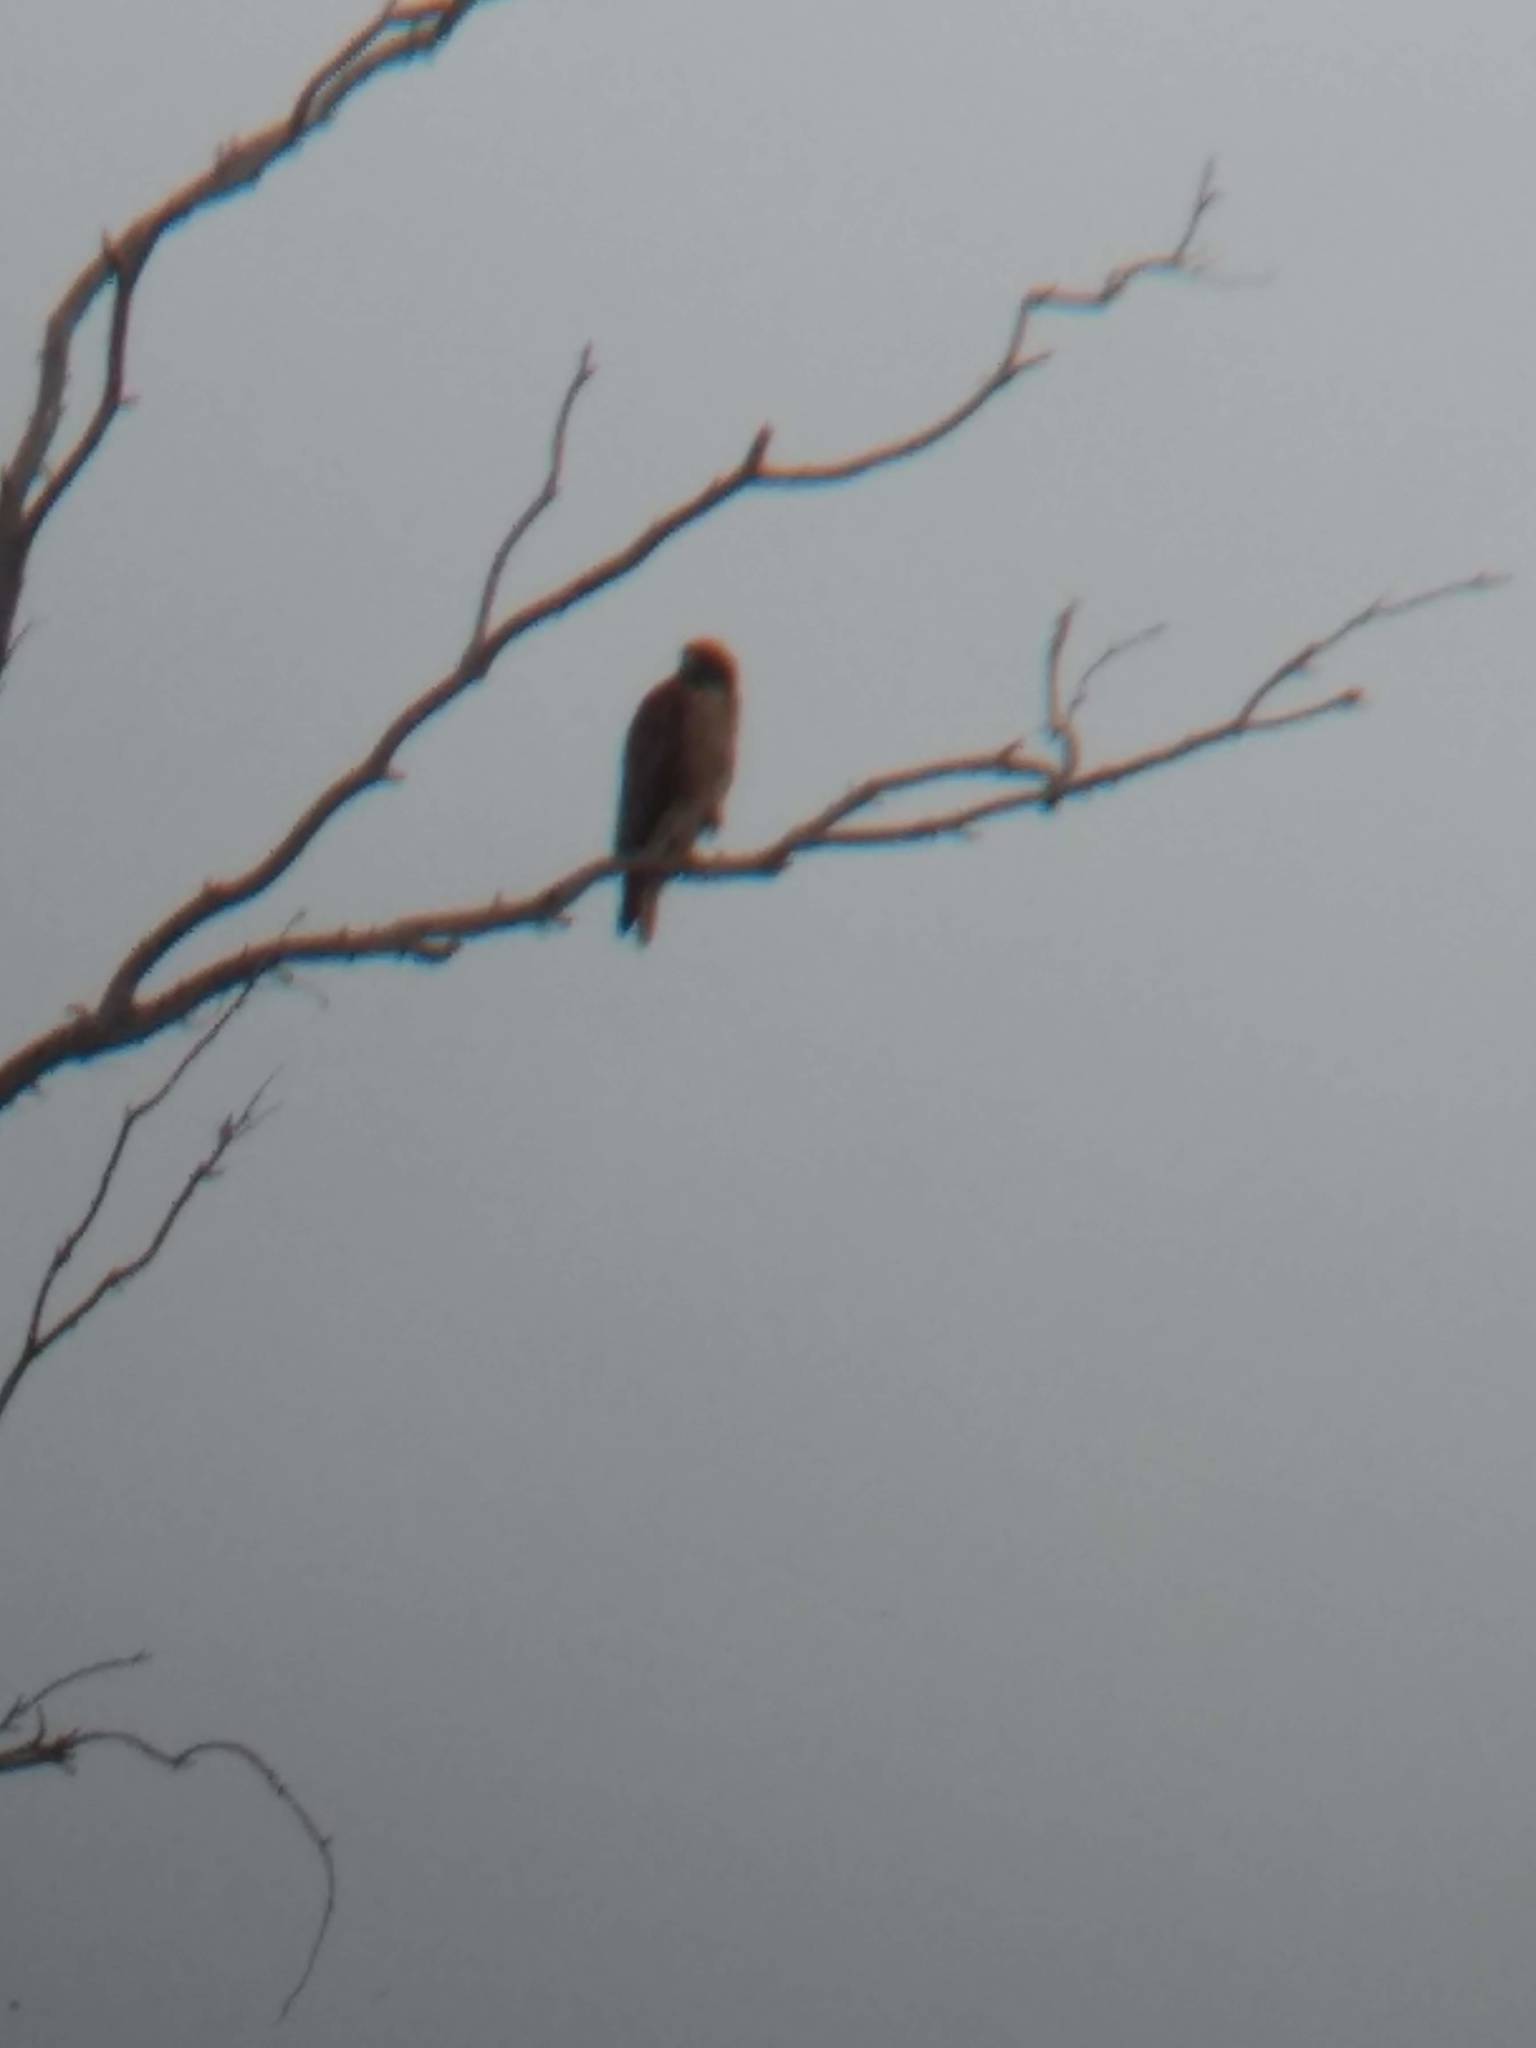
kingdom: Animalia
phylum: Chordata
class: Aves
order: Accipitriformes
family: Accipitridae
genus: Buteo
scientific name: Buteo jamaicensis
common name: Red-tailed hawk
